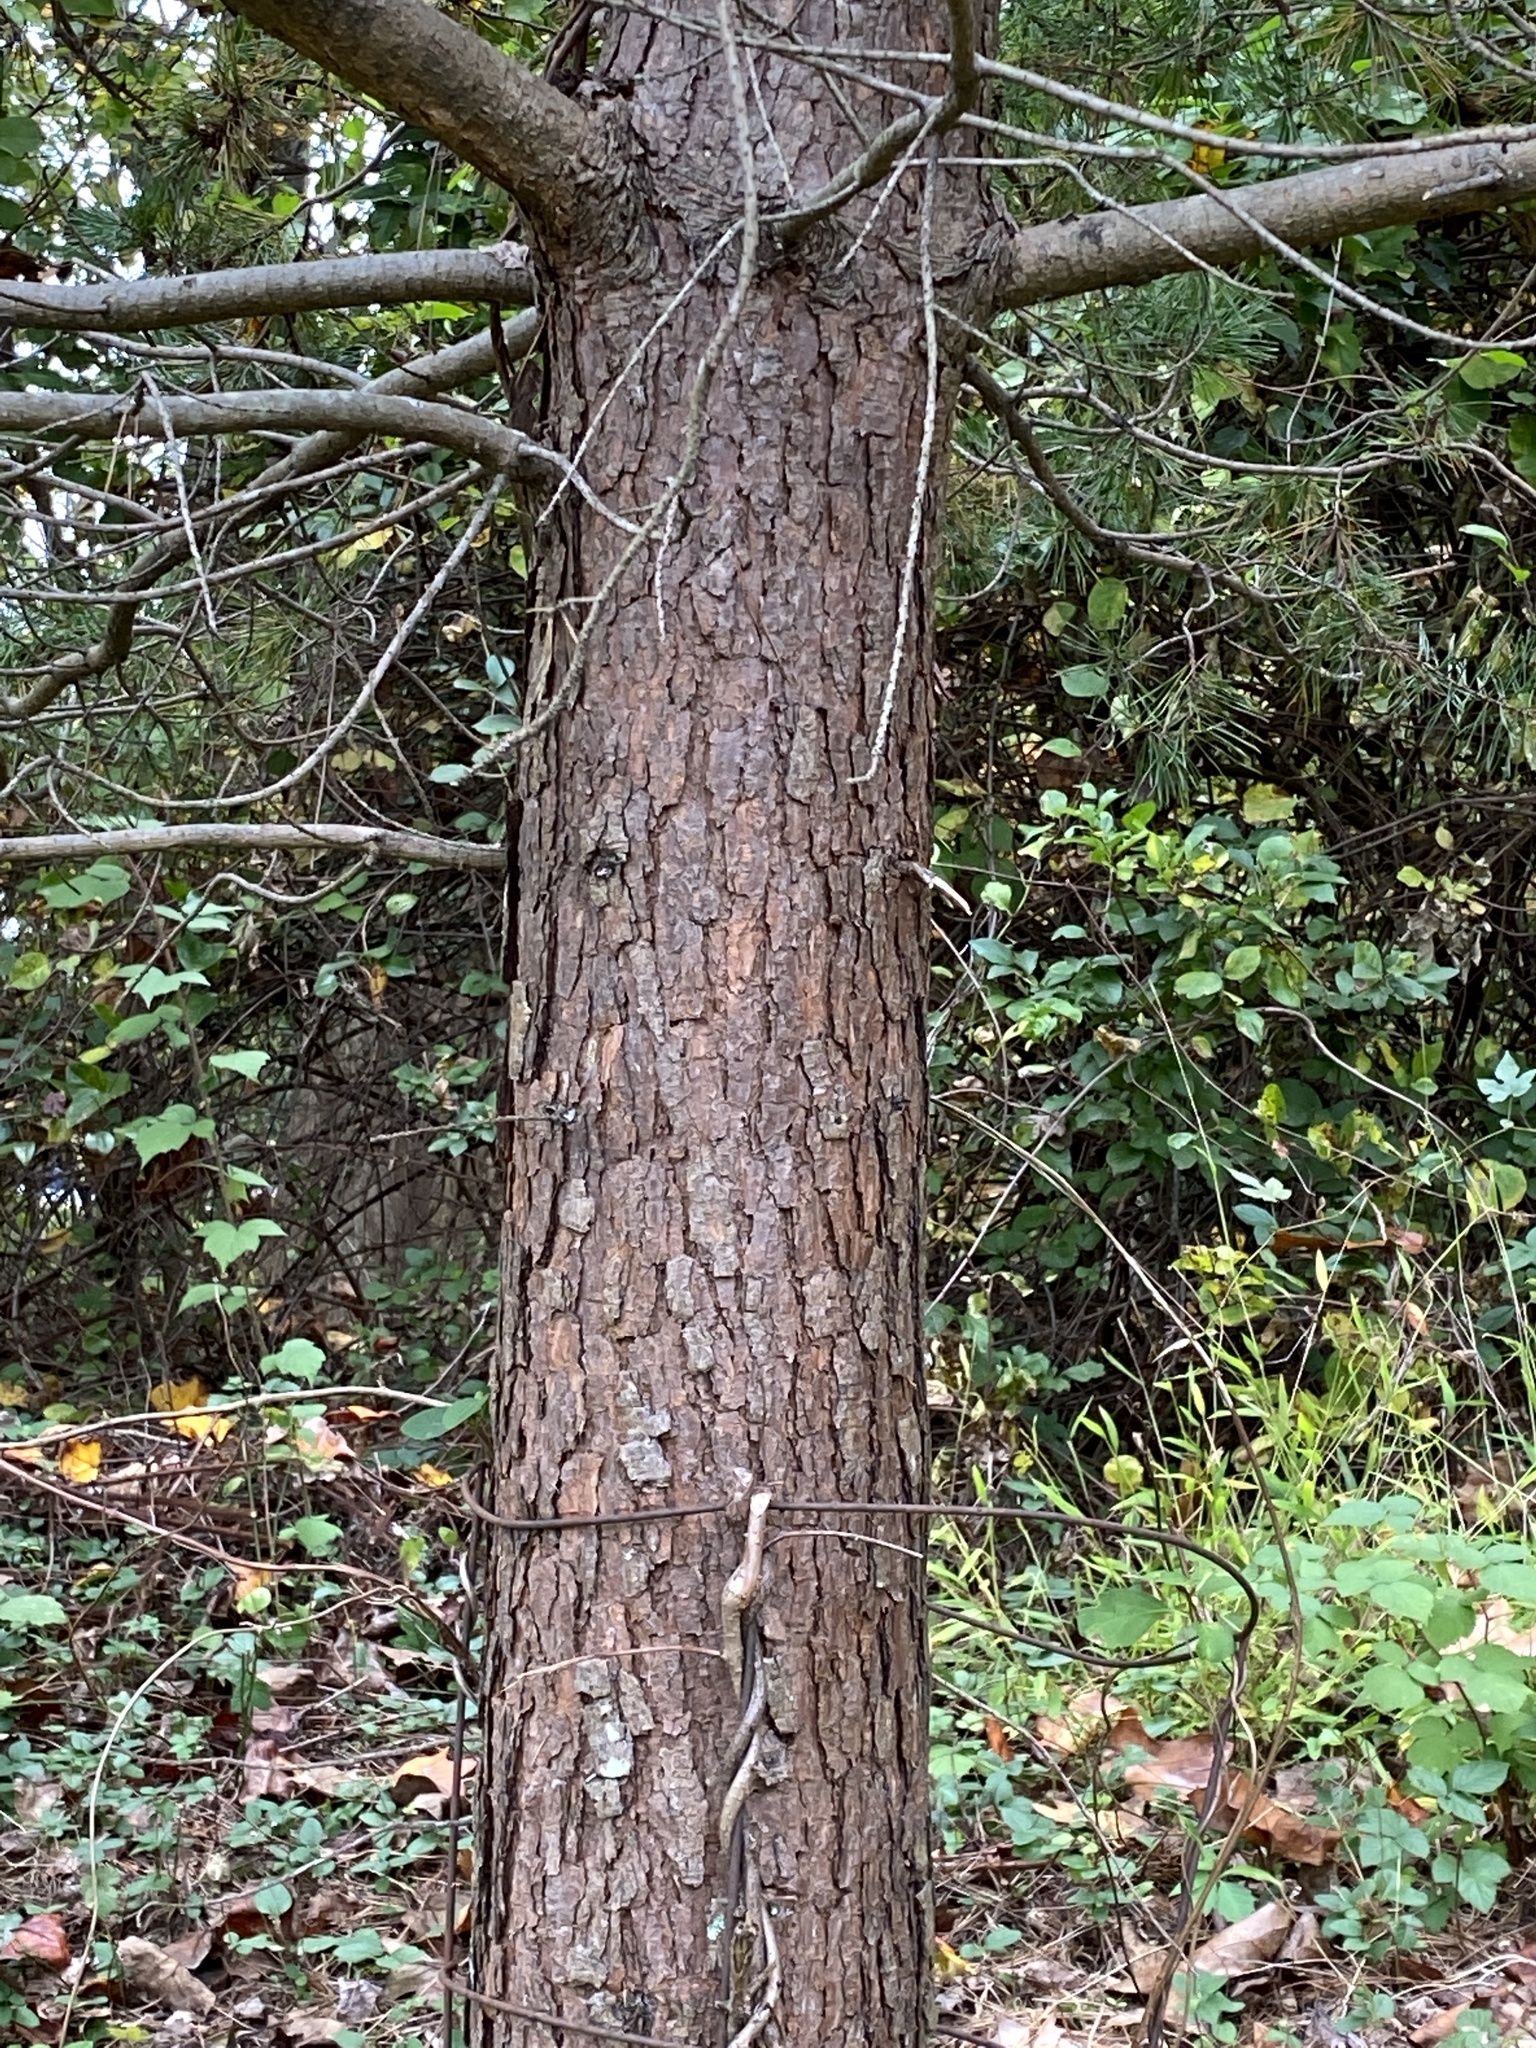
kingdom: Plantae
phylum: Tracheophyta
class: Pinopsida
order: Pinales
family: Pinaceae
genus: Pinus
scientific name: Pinus virginiana
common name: Scrub pine
